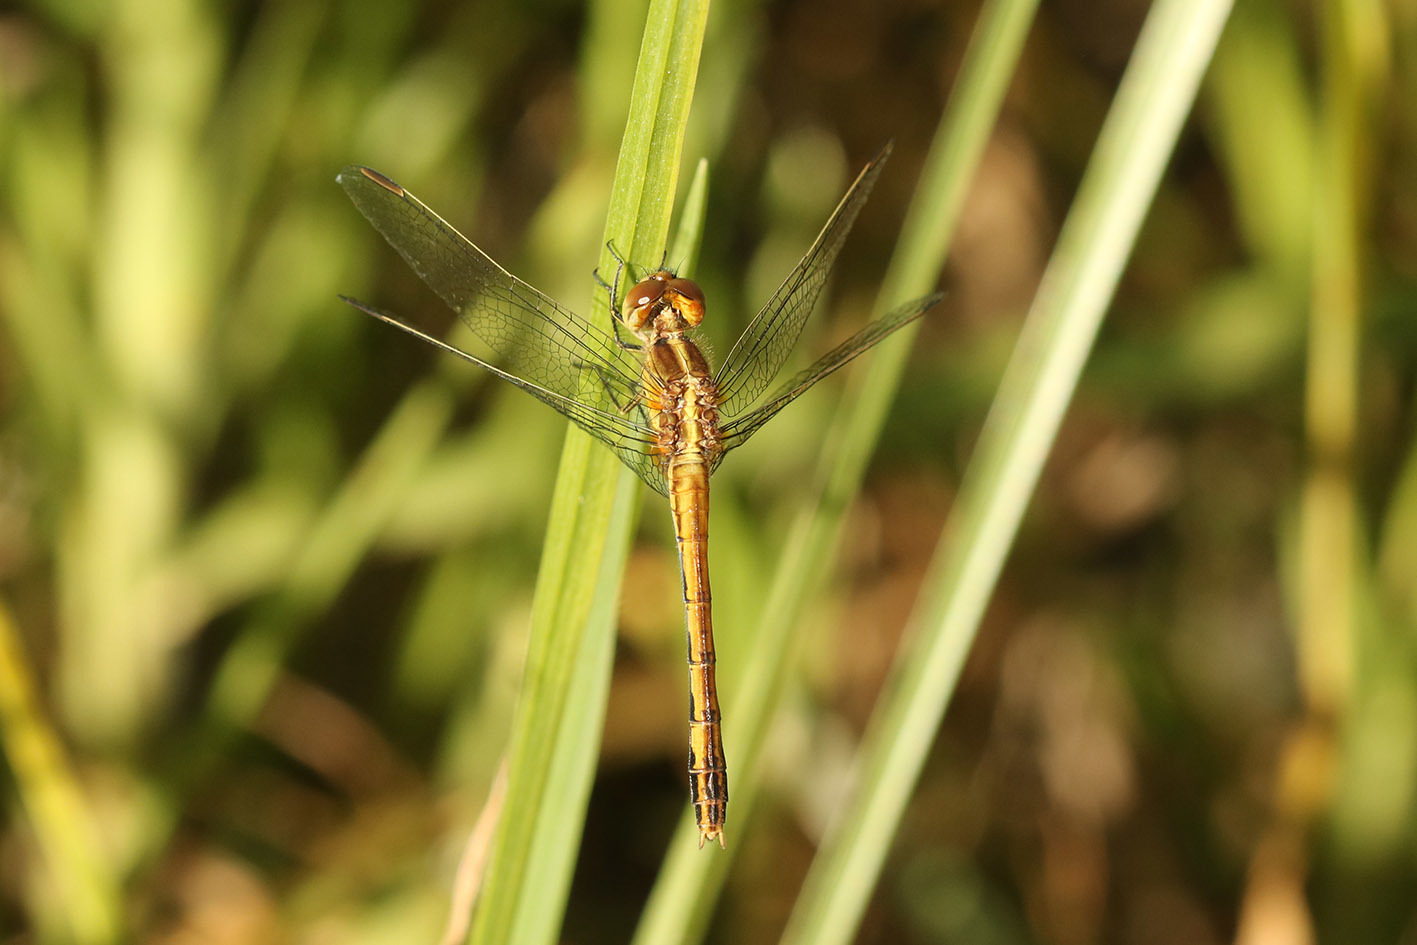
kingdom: Animalia
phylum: Arthropoda
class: Insecta
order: Odonata
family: Libellulidae
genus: Erythrodiplax
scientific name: Erythrodiplax nigricans
